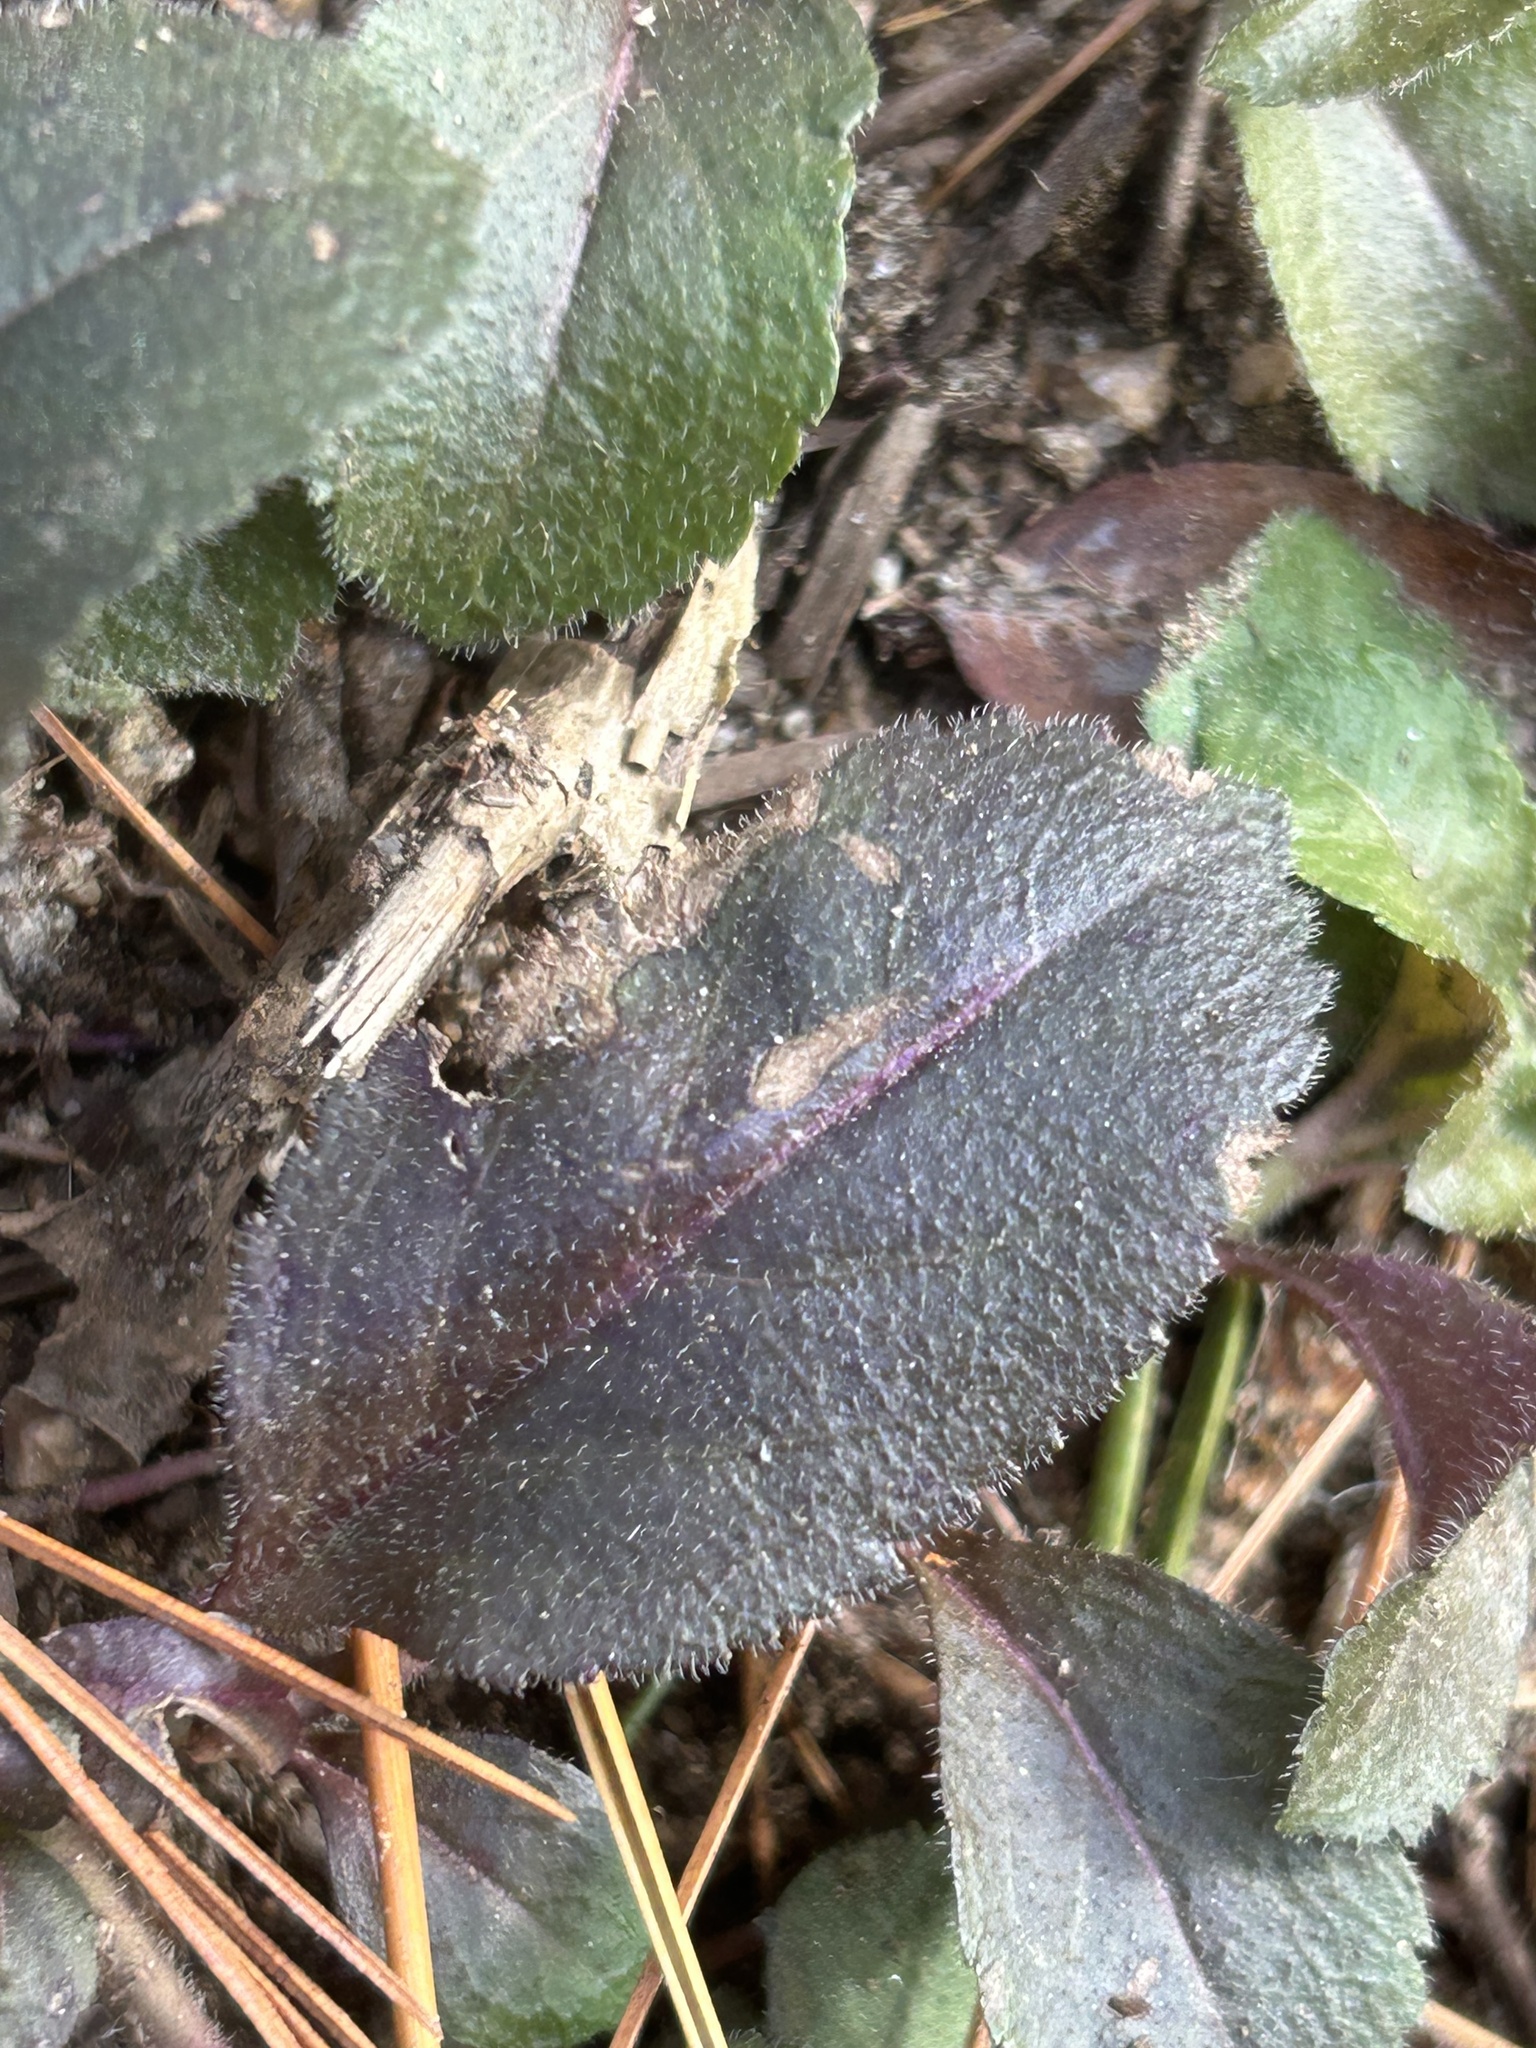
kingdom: Plantae
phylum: Tracheophyta
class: Magnoliopsida
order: Lamiales
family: Plantaginaceae
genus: Veronica
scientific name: Veronica officinalis
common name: Common speedwell
